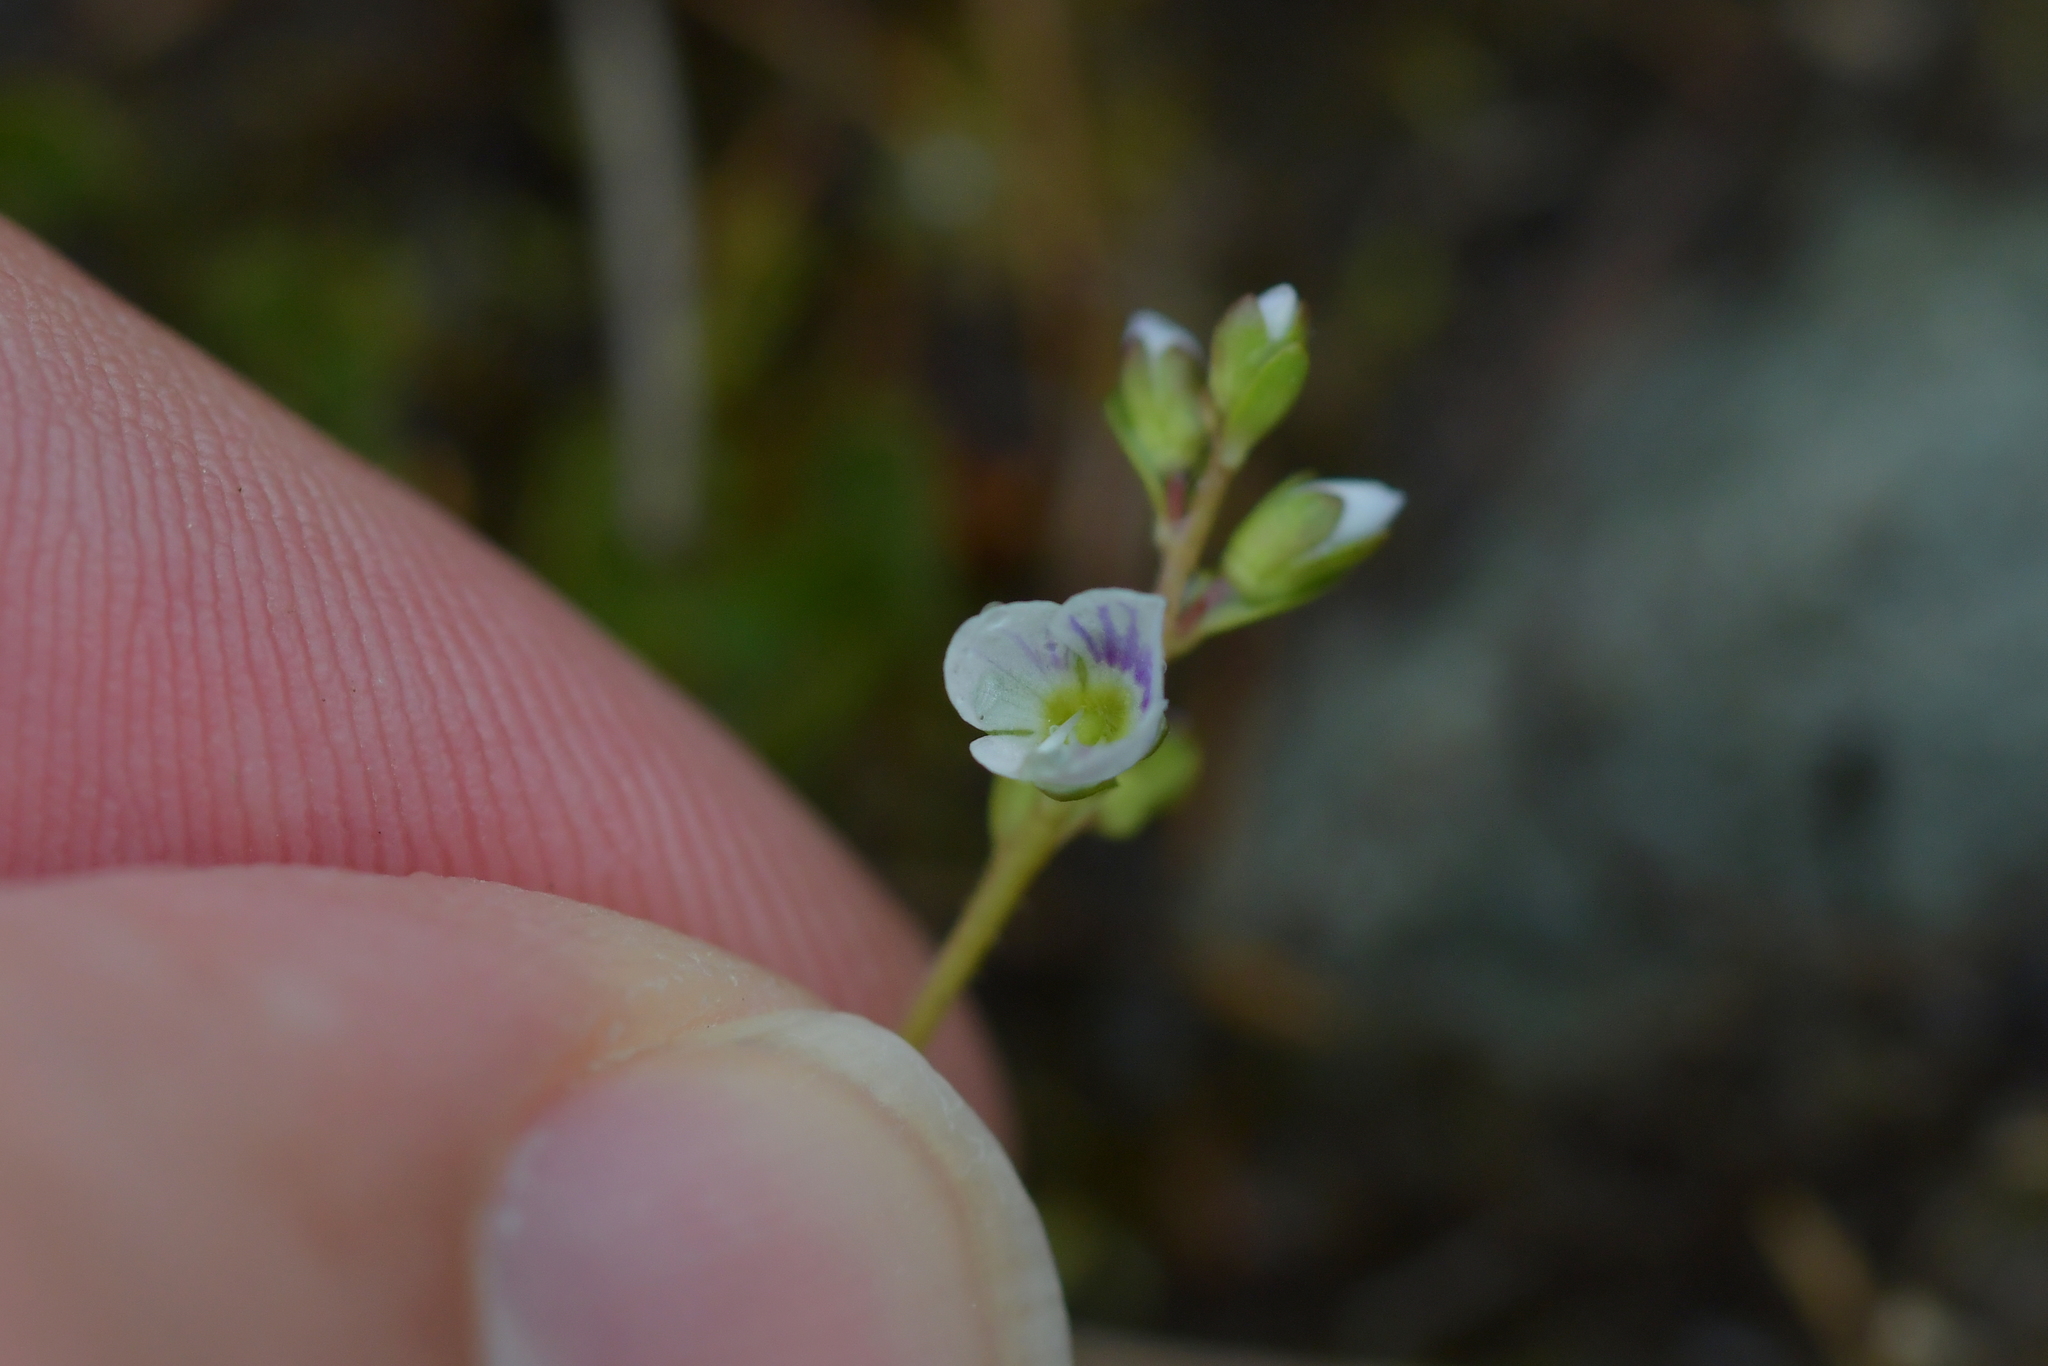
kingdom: Plantae
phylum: Tracheophyta
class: Magnoliopsida
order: Lamiales
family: Plantaginaceae
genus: Veronica
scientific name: Veronica serpyllifolia
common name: Thyme-leaved speedwell
